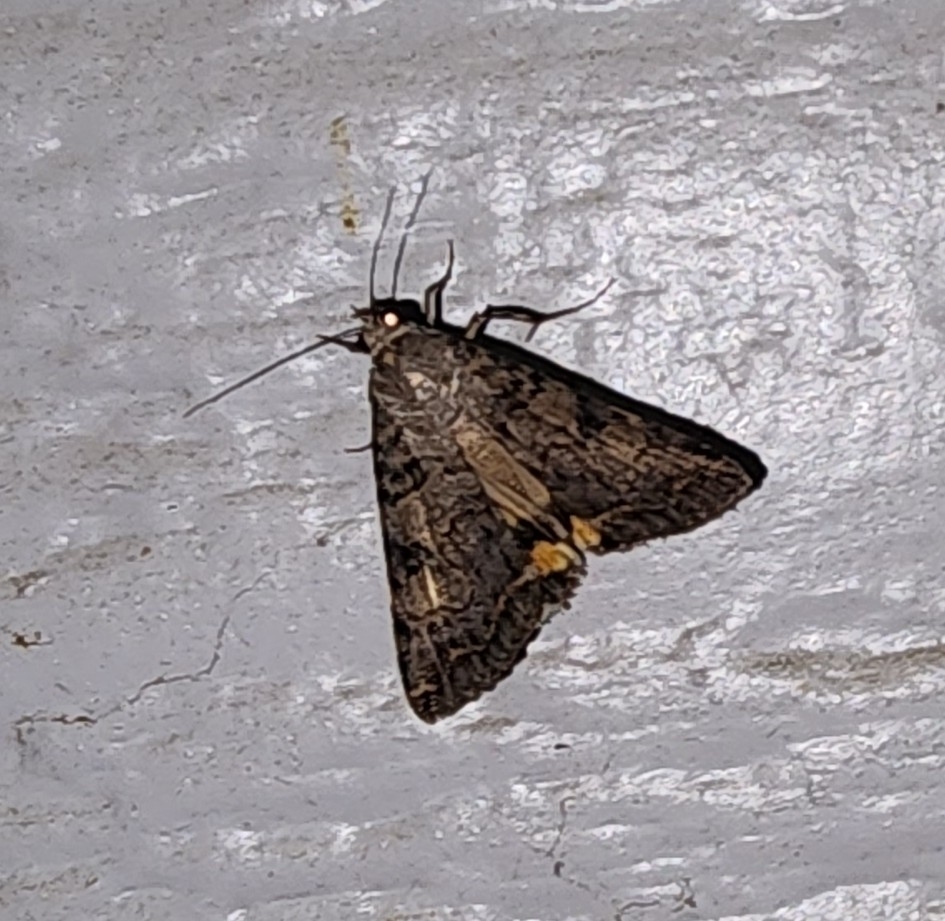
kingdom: Animalia
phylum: Arthropoda
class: Insecta
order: Lepidoptera
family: Erebidae
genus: Bulia
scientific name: Bulia deducta
